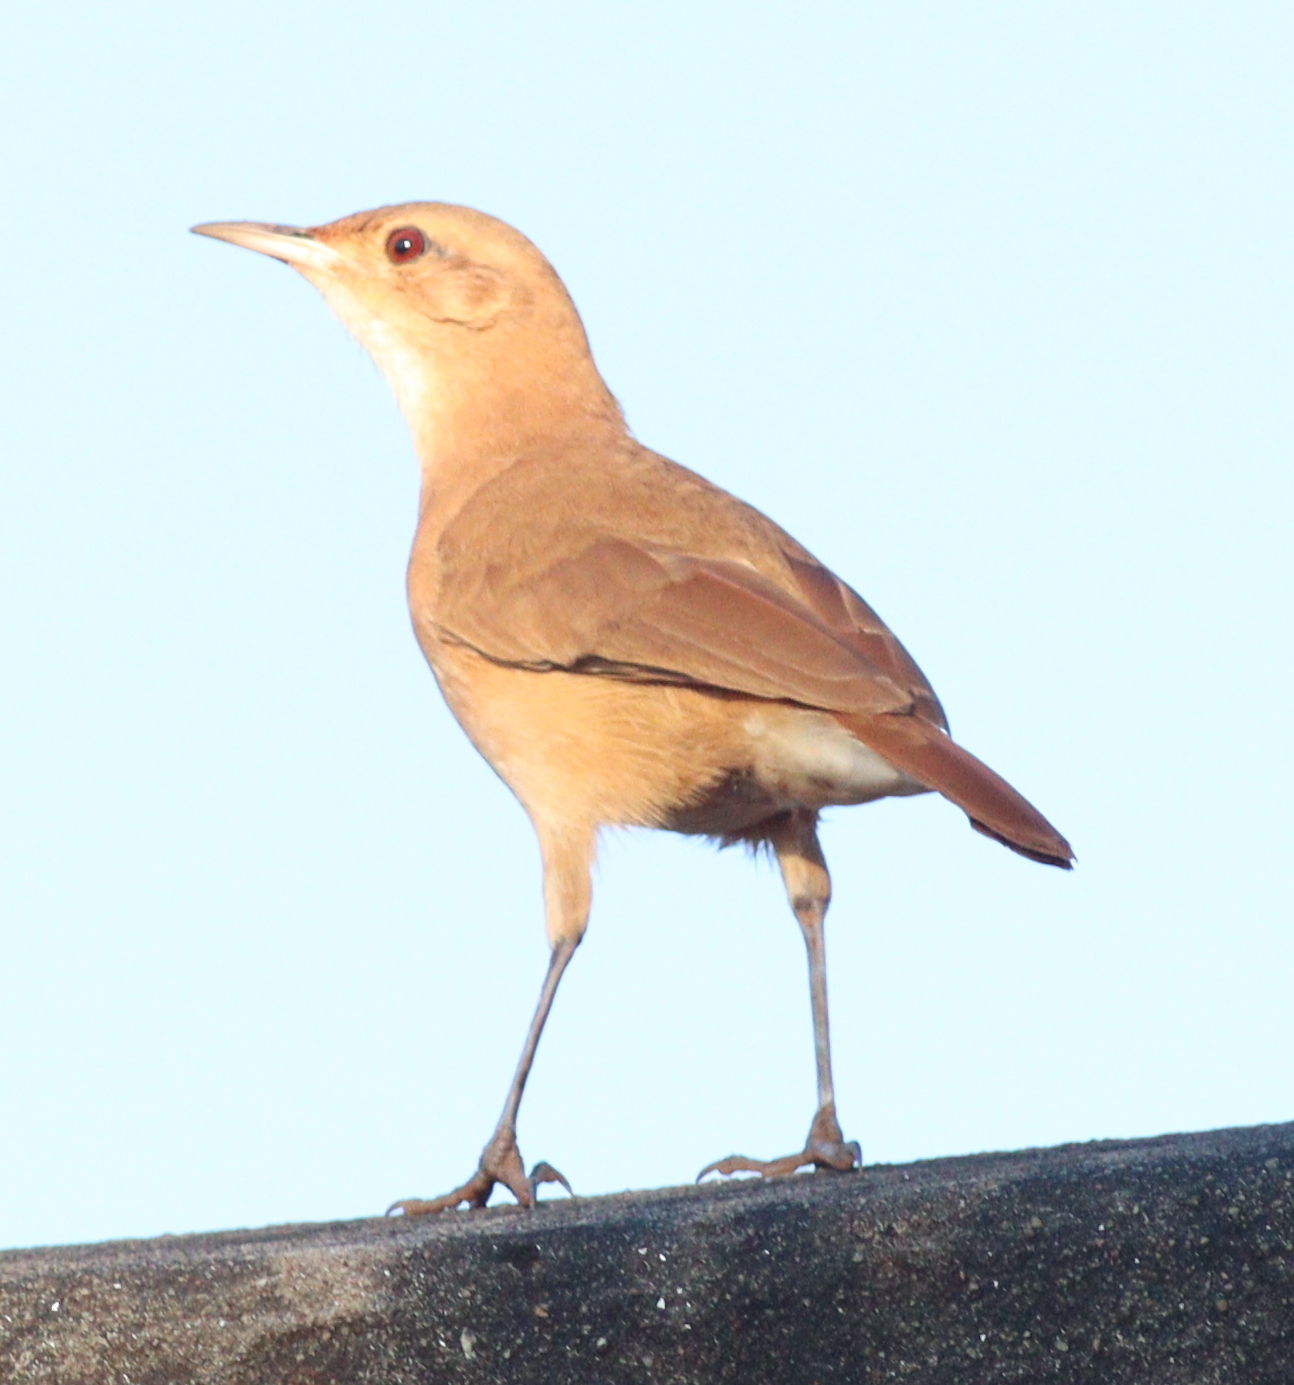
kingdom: Animalia
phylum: Chordata
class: Aves
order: Passeriformes
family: Furnariidae
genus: Furnarius
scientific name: Furnarius rufus
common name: Rufous hornero
